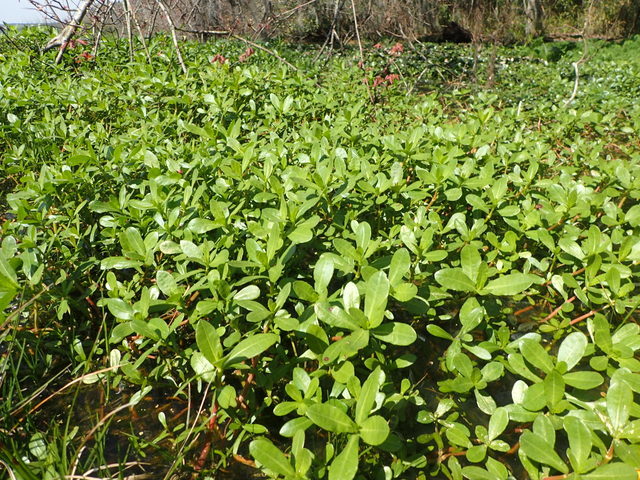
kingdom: Plantae
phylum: Tracheophyta
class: Magnoliopsida
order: Caryophyllales
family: Amaranthaceae
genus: Alternanthera
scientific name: Alternanthera philoxeroides
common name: Alligatorweed
